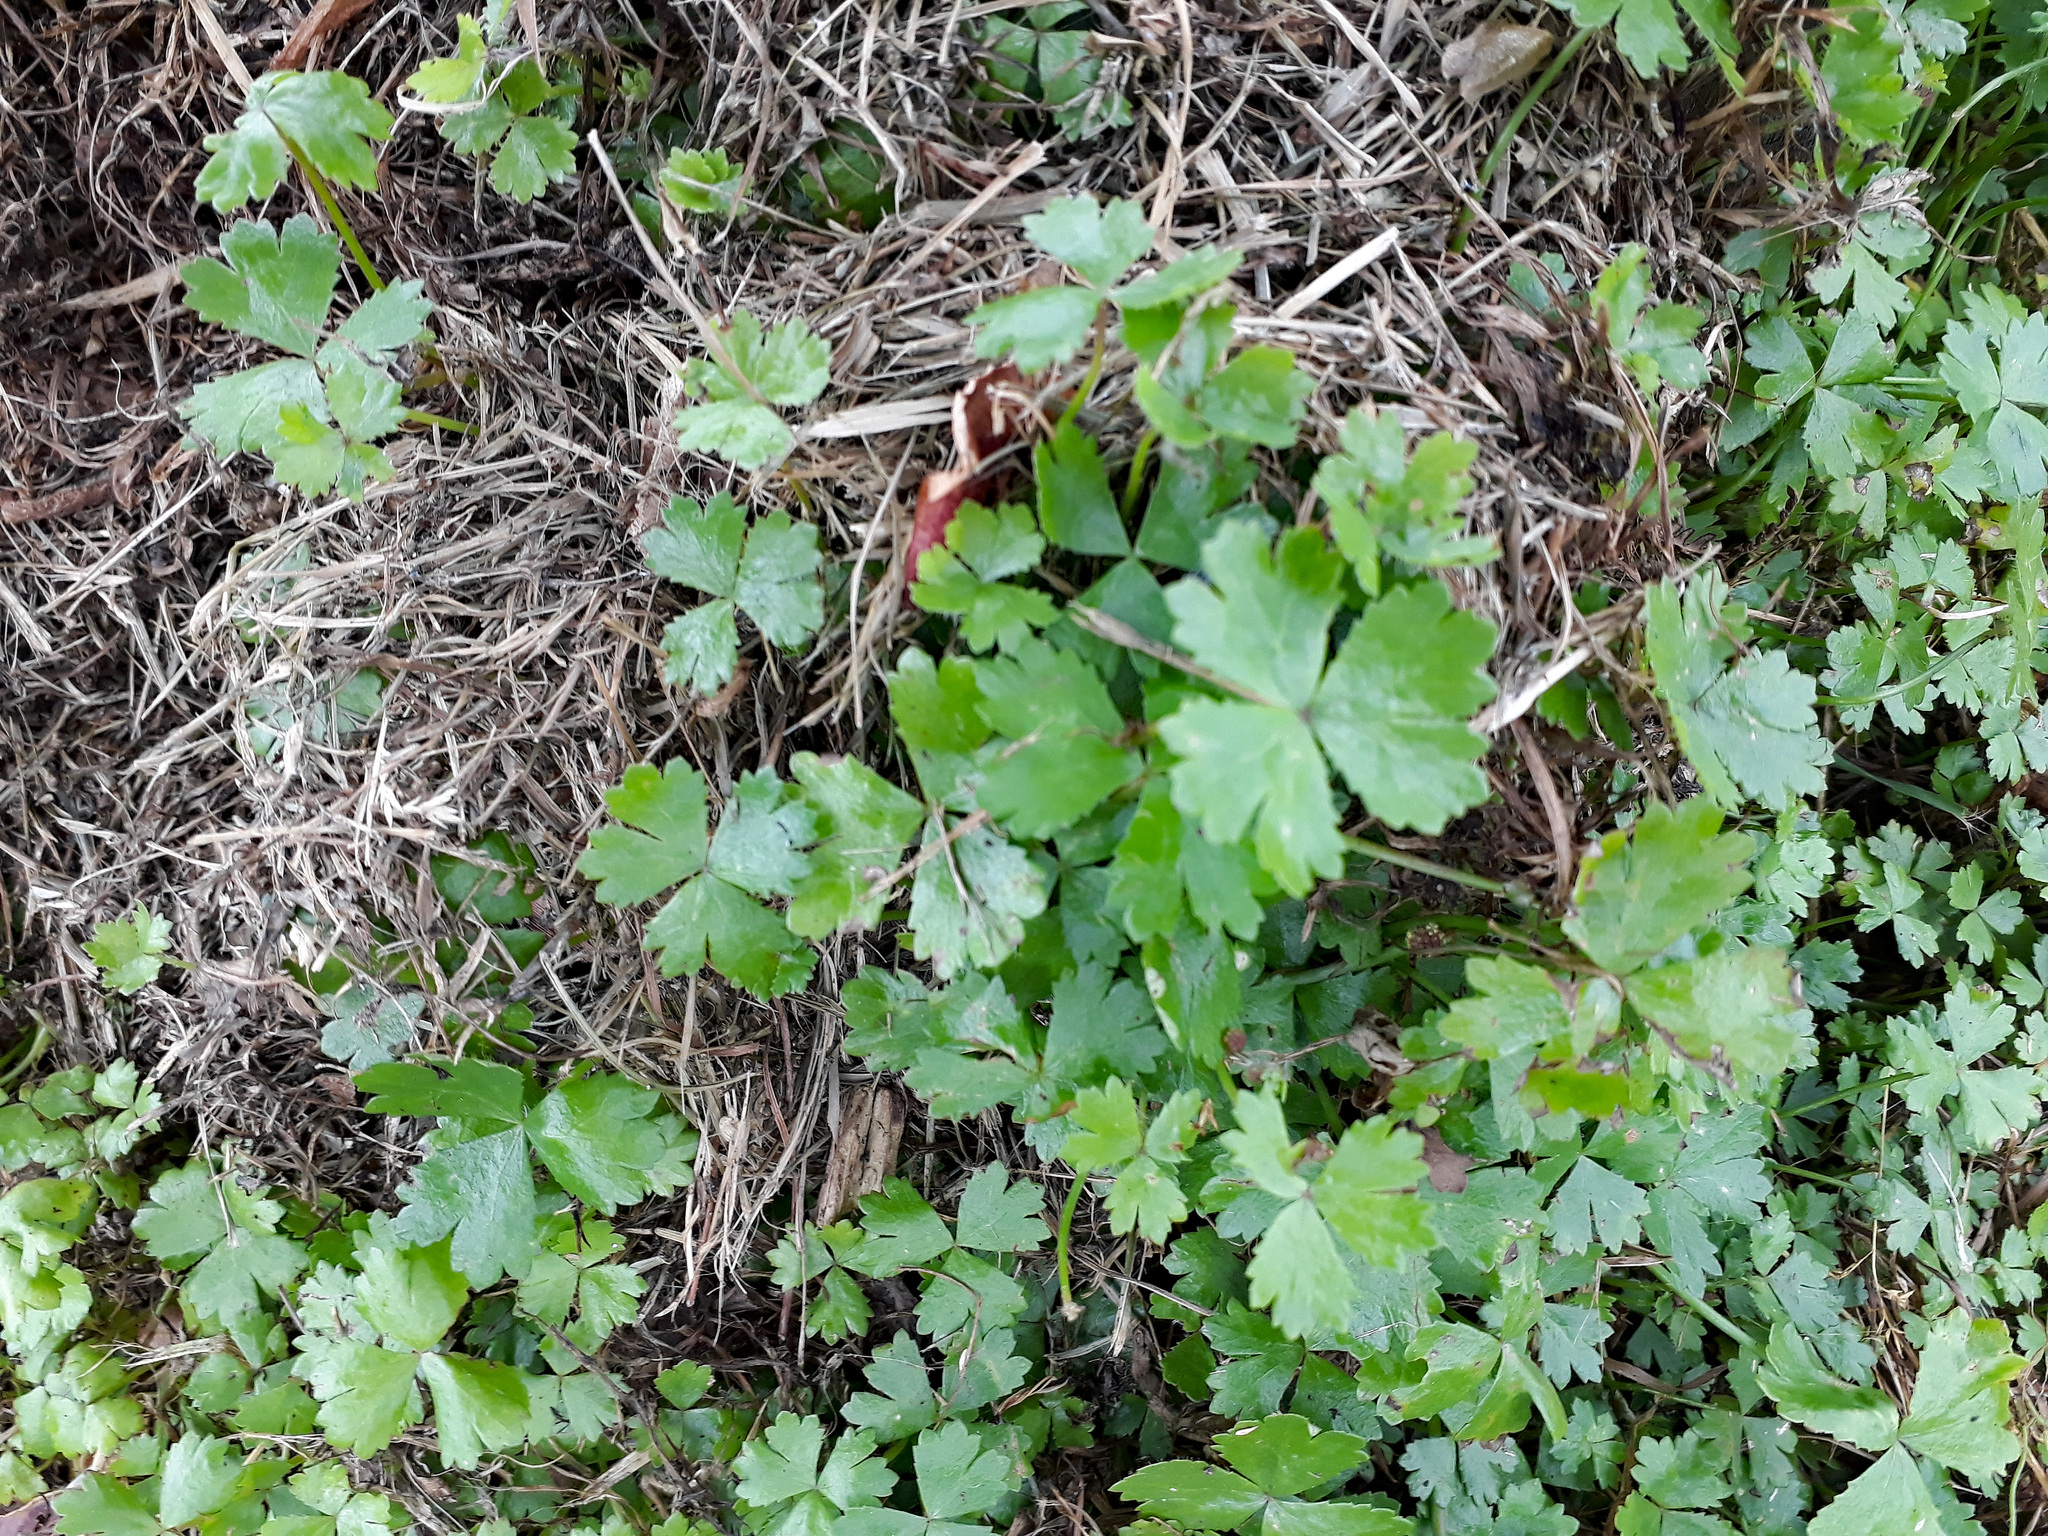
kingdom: Plantae
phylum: Tracheophyta
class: Magnoliopsida
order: Apiales
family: Araliaceae
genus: Hydrocotyle
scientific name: Hydrocotyle tripartita
